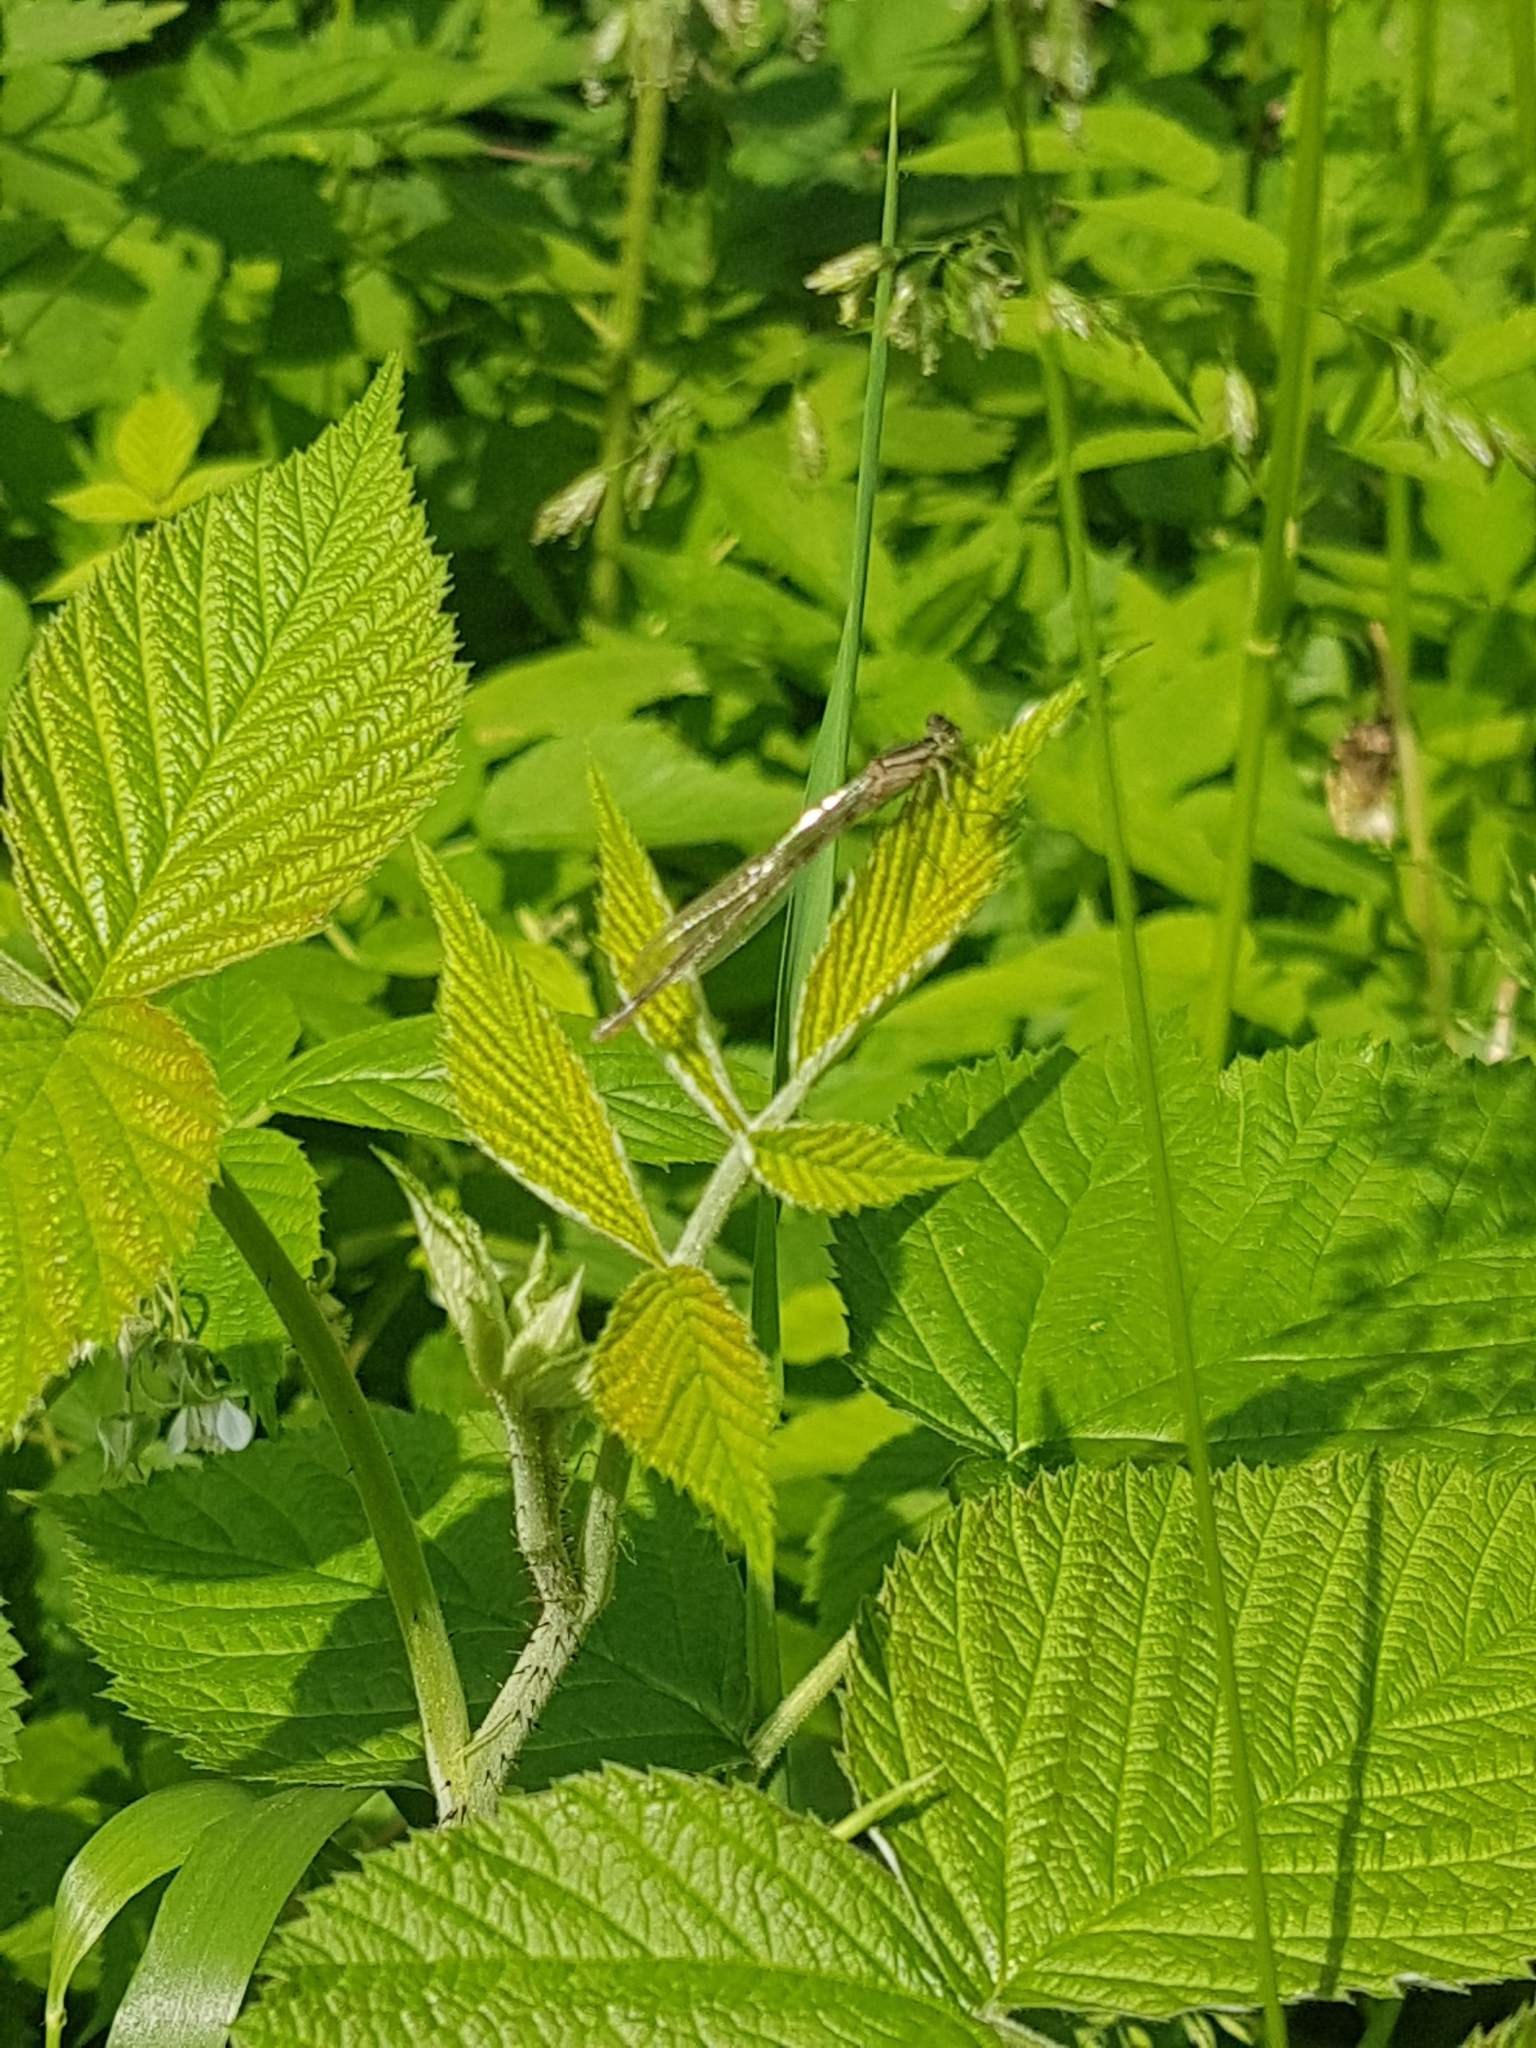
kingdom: Animalia
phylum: Arthropoda
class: Insecta
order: Odonata
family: Coenagrionidae
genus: Enallagma
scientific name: Enallagma cyathigerum
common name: Common blue damselfly
